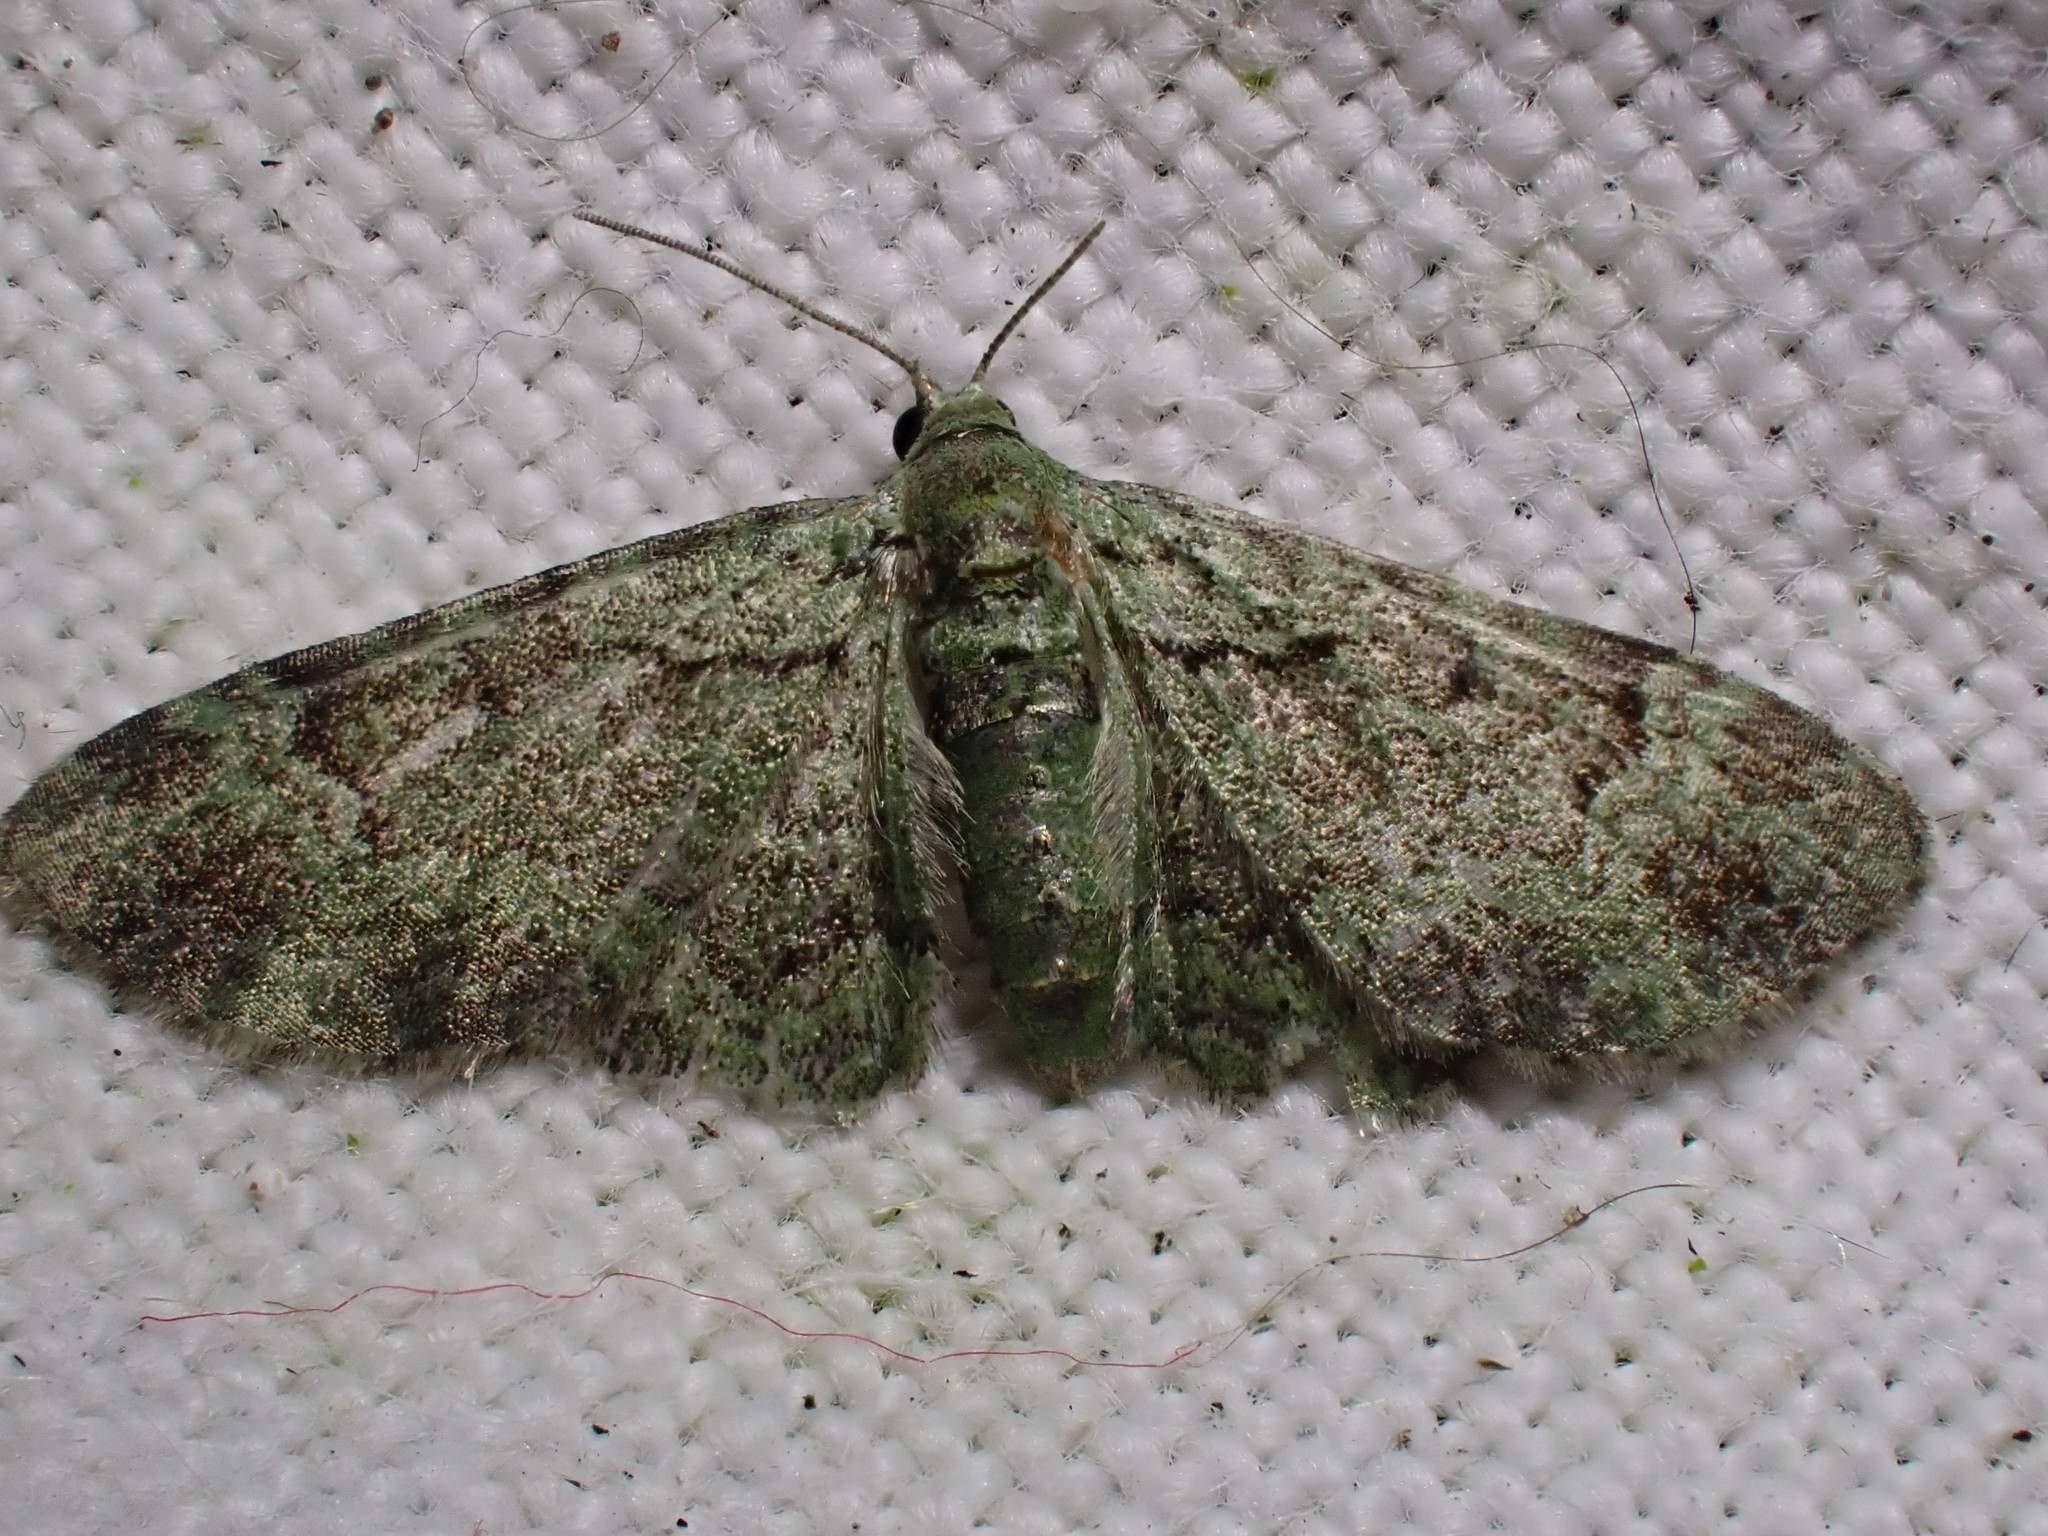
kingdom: Animalia
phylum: Arthropoda
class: Insecta
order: Lepidoptera
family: Geometridae
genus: Pasiphila
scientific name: Pasiphila rectangulata
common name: Green pug
